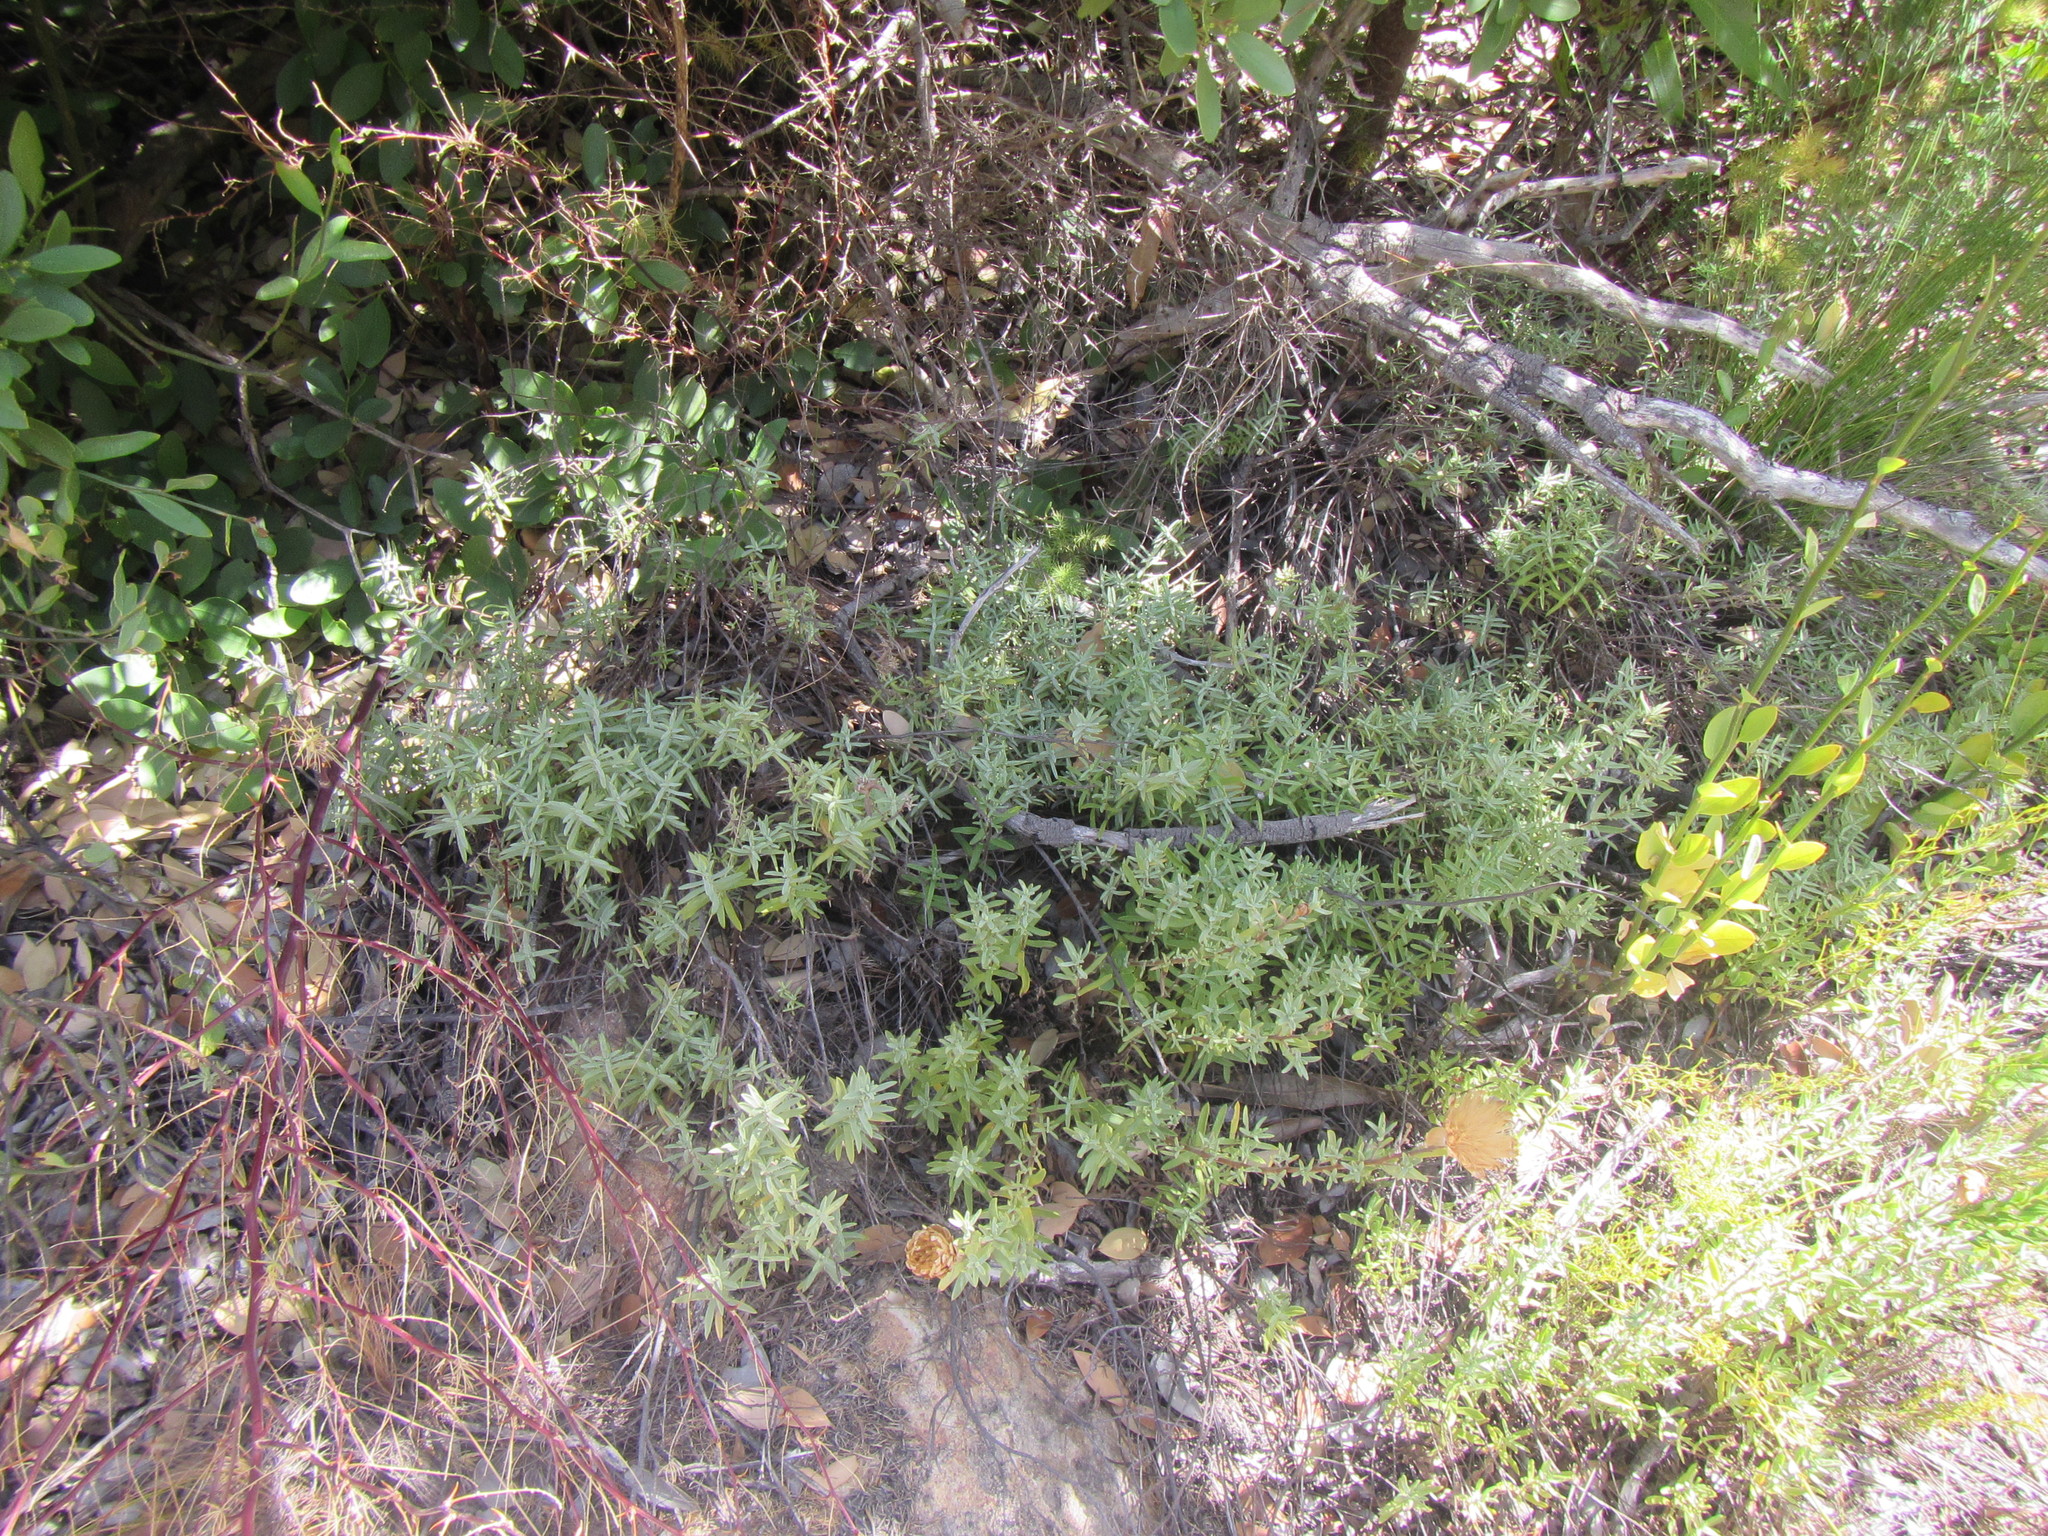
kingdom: Plantae
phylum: Tracheophyta
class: Magnoliopsida
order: Asterales
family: Asteraceae
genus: Pteronia
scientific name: Pteronia centauroides
